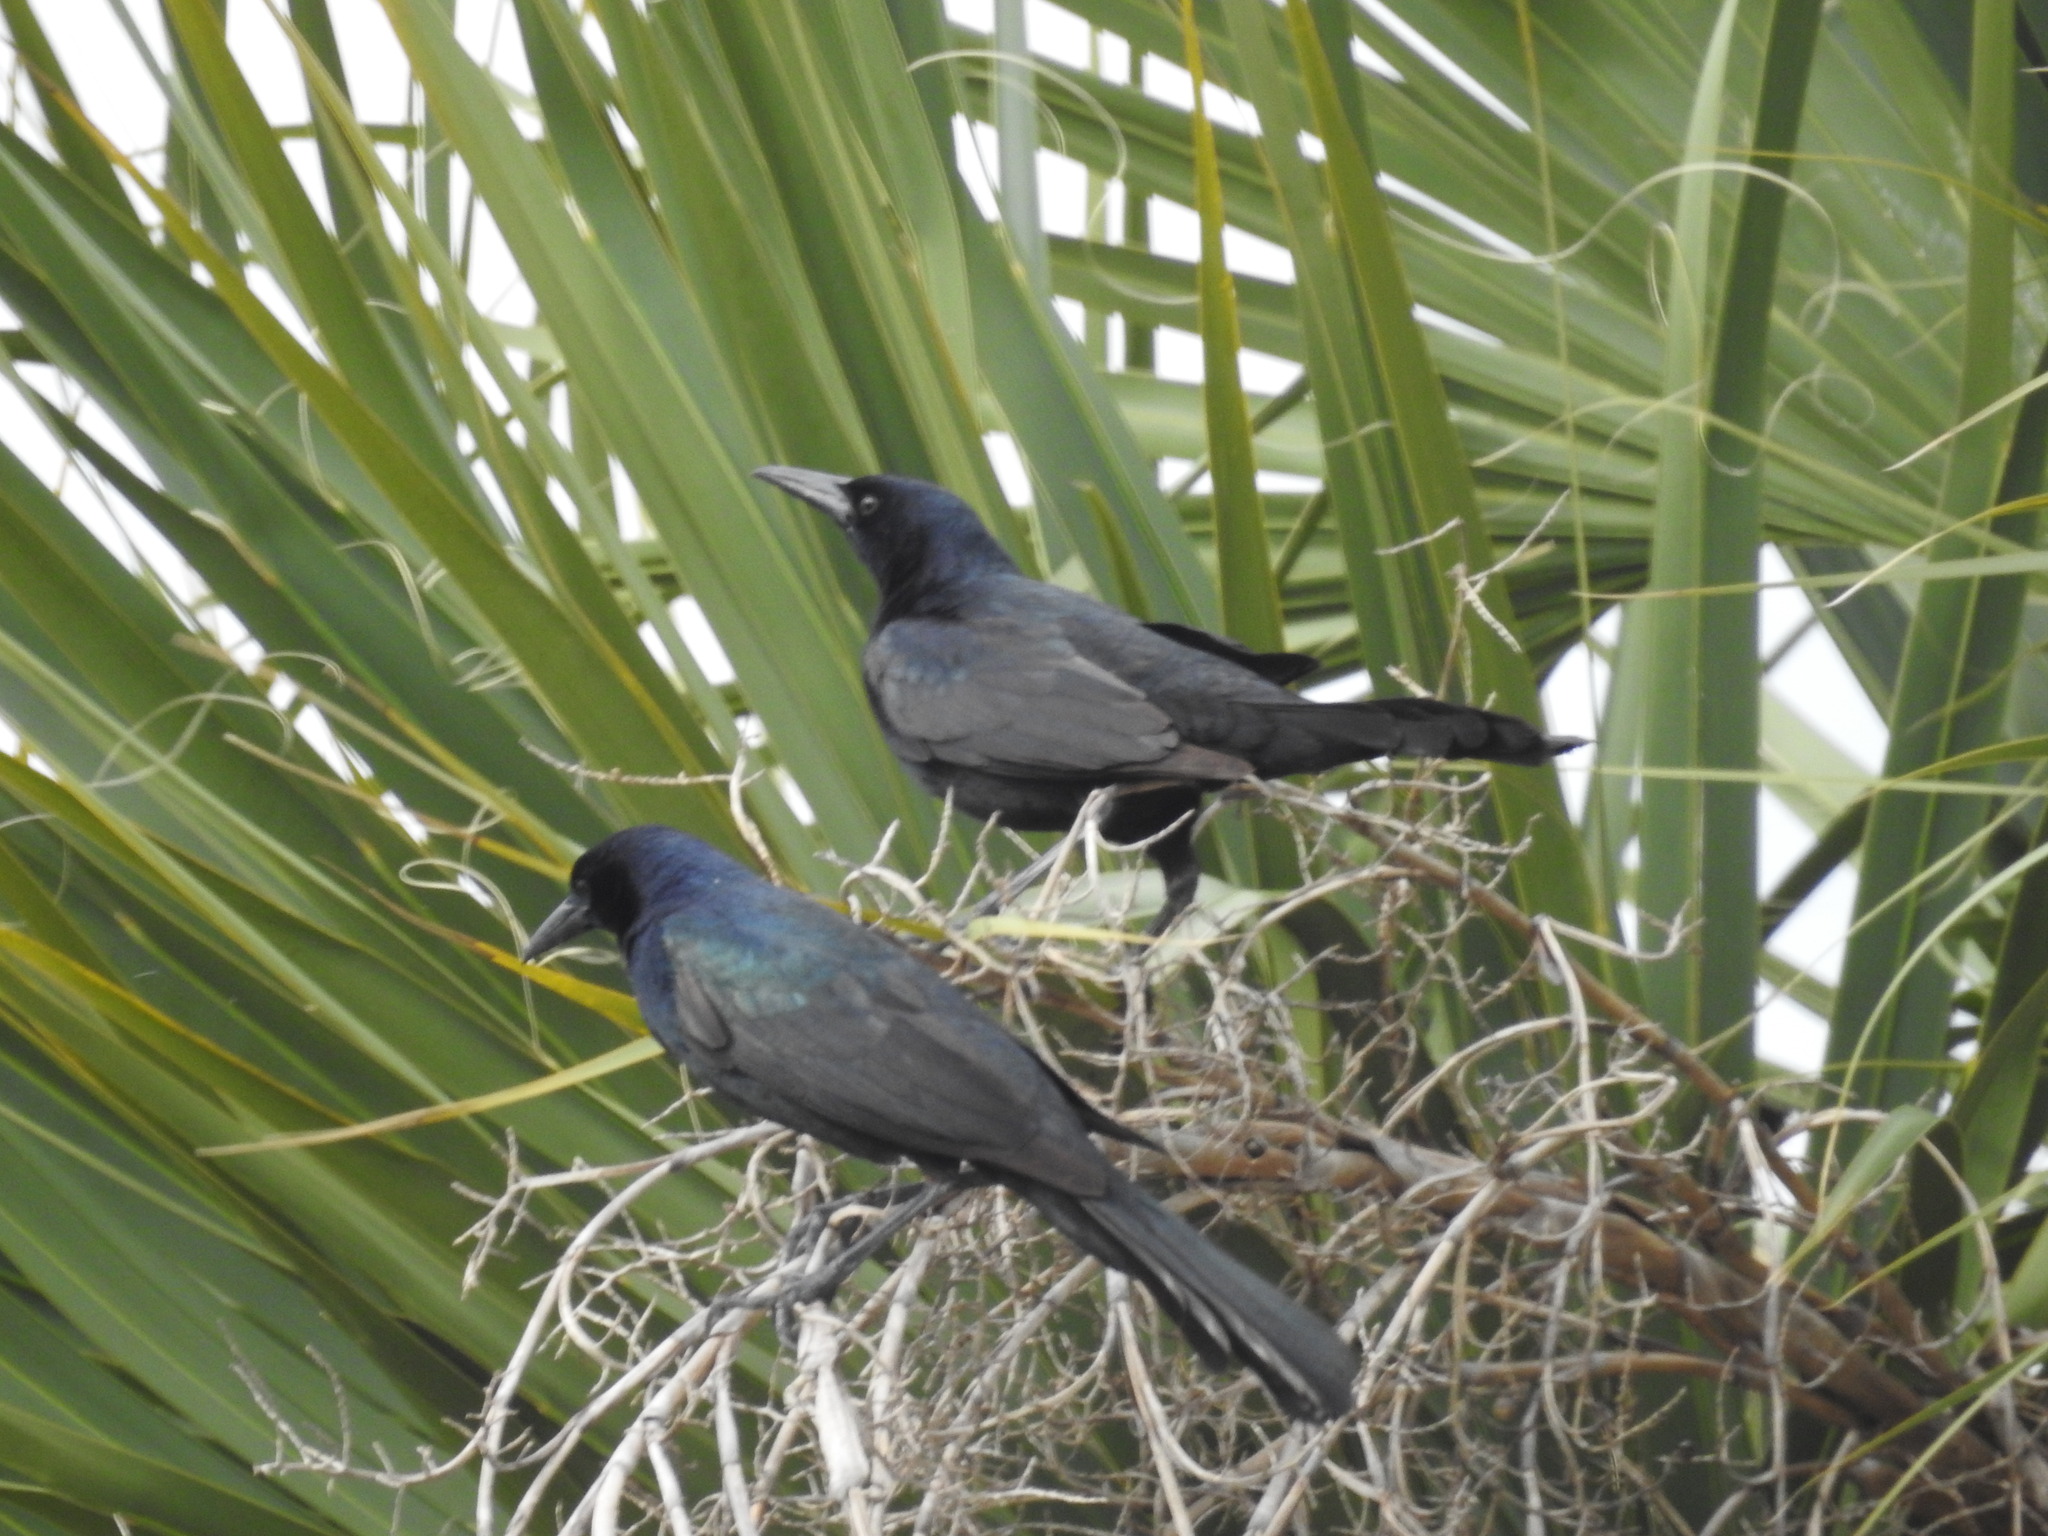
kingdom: Animalia
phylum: Chordata
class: Aves
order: Passeriformes
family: Icteridae
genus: Quiscalus
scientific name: Quiscalus major
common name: Boat-tailed grackle
